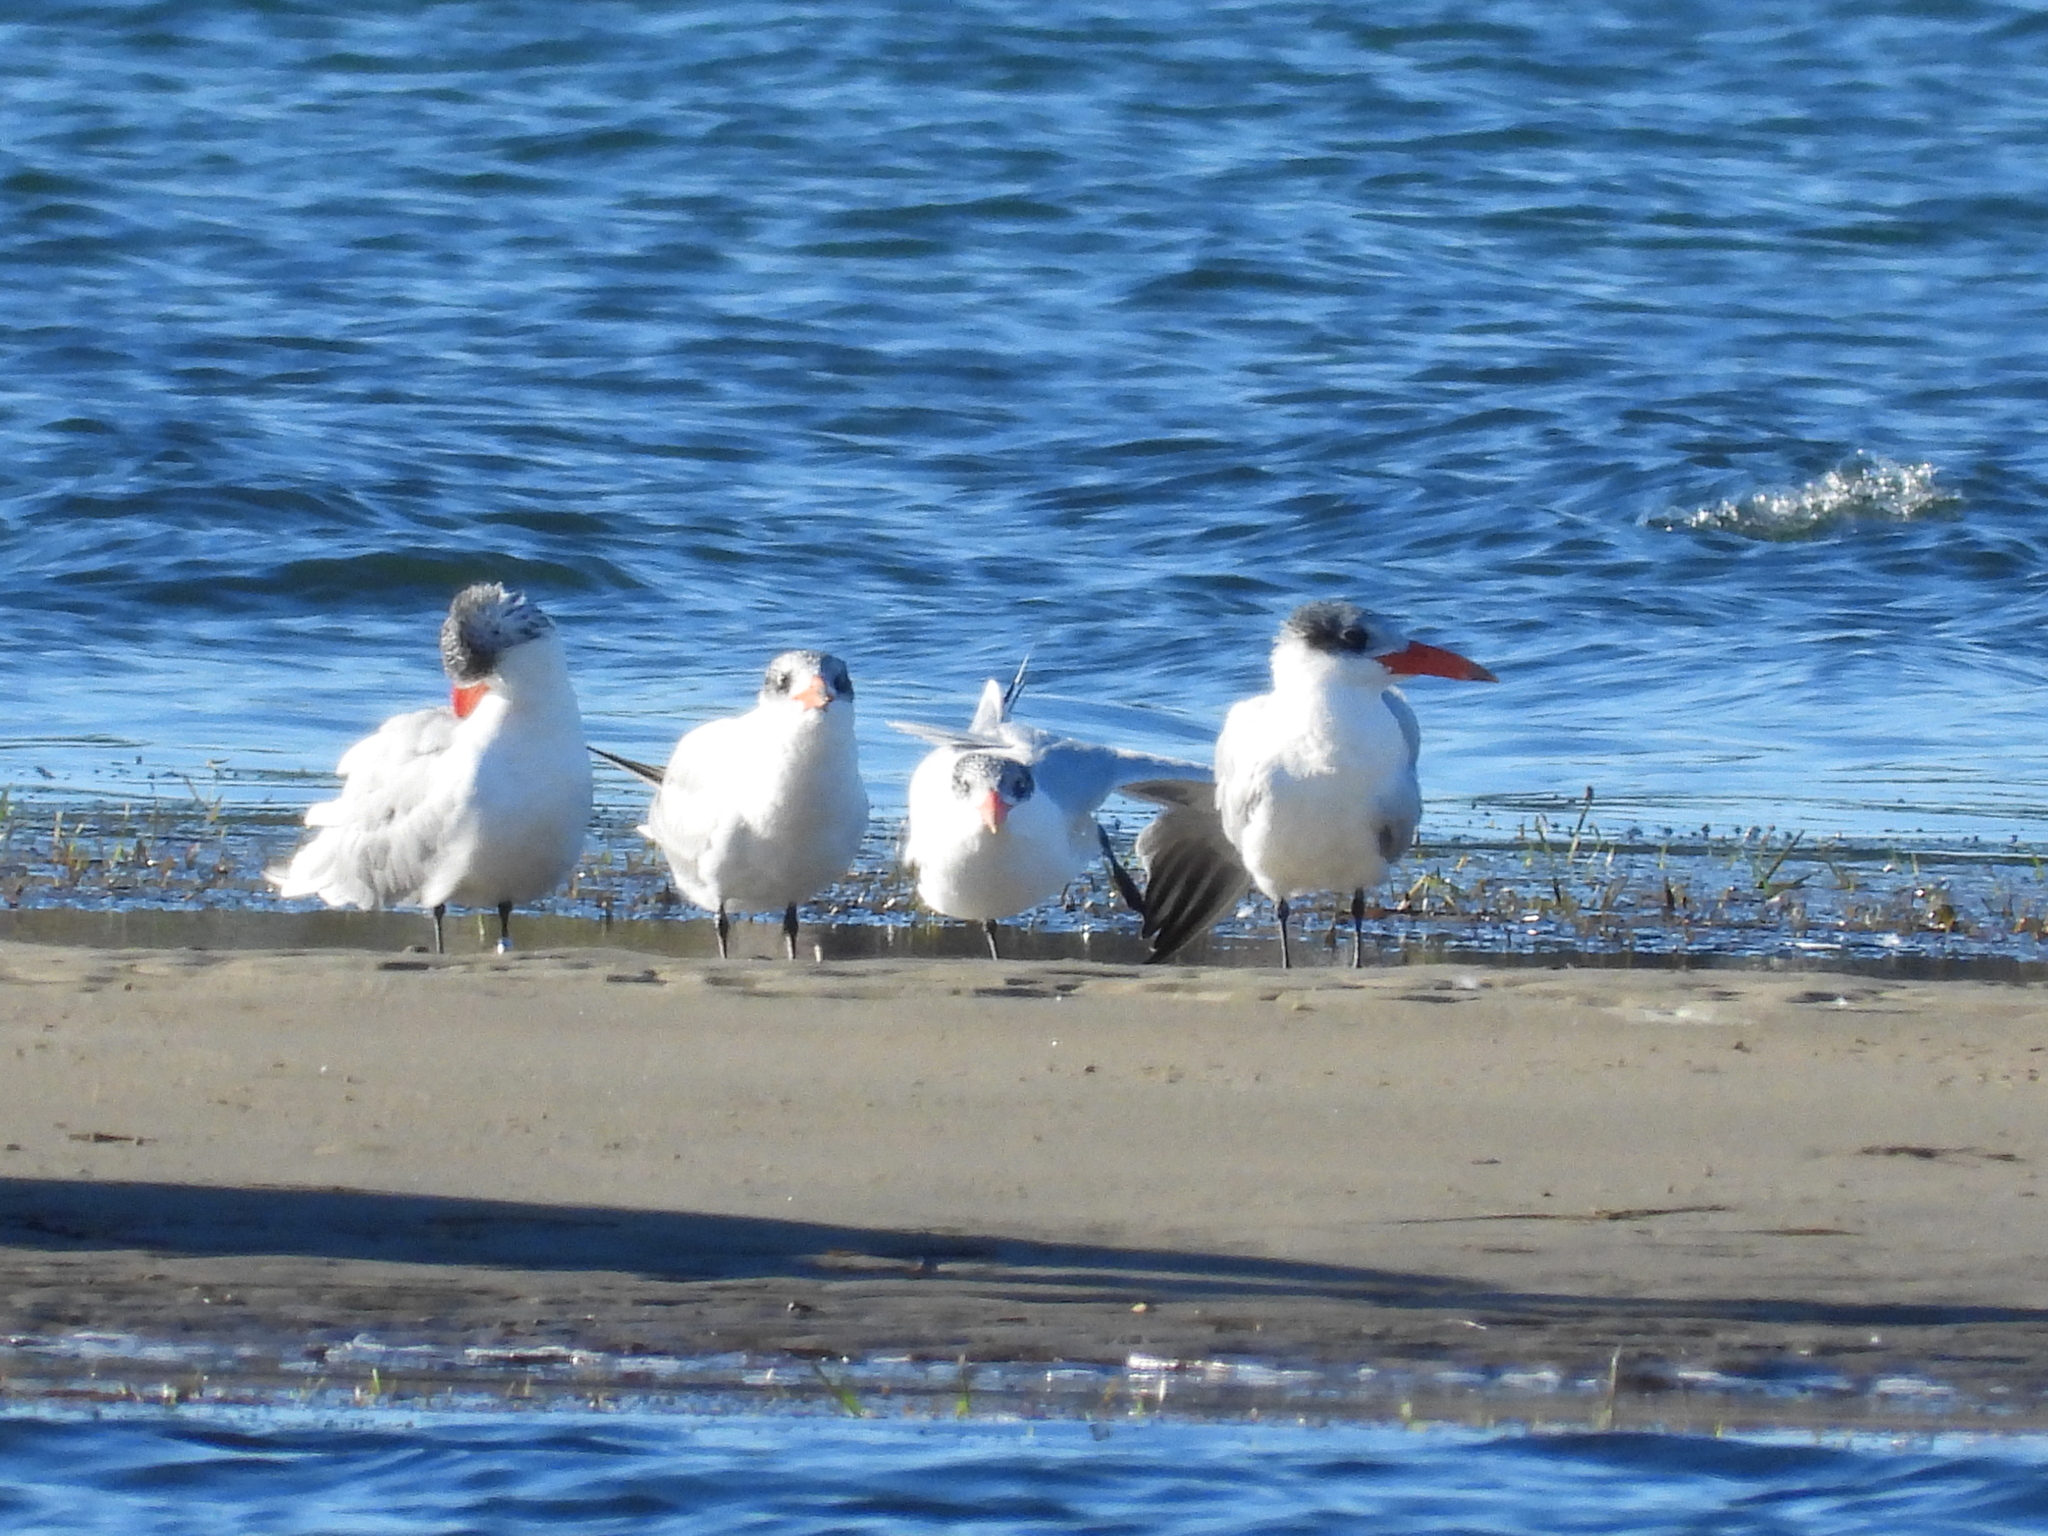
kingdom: Animalia
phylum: Chordata
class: Aves
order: Charadriiformes
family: Laridae
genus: Hydroprogne
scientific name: Hydroprogne caspia
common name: Caspian tern
